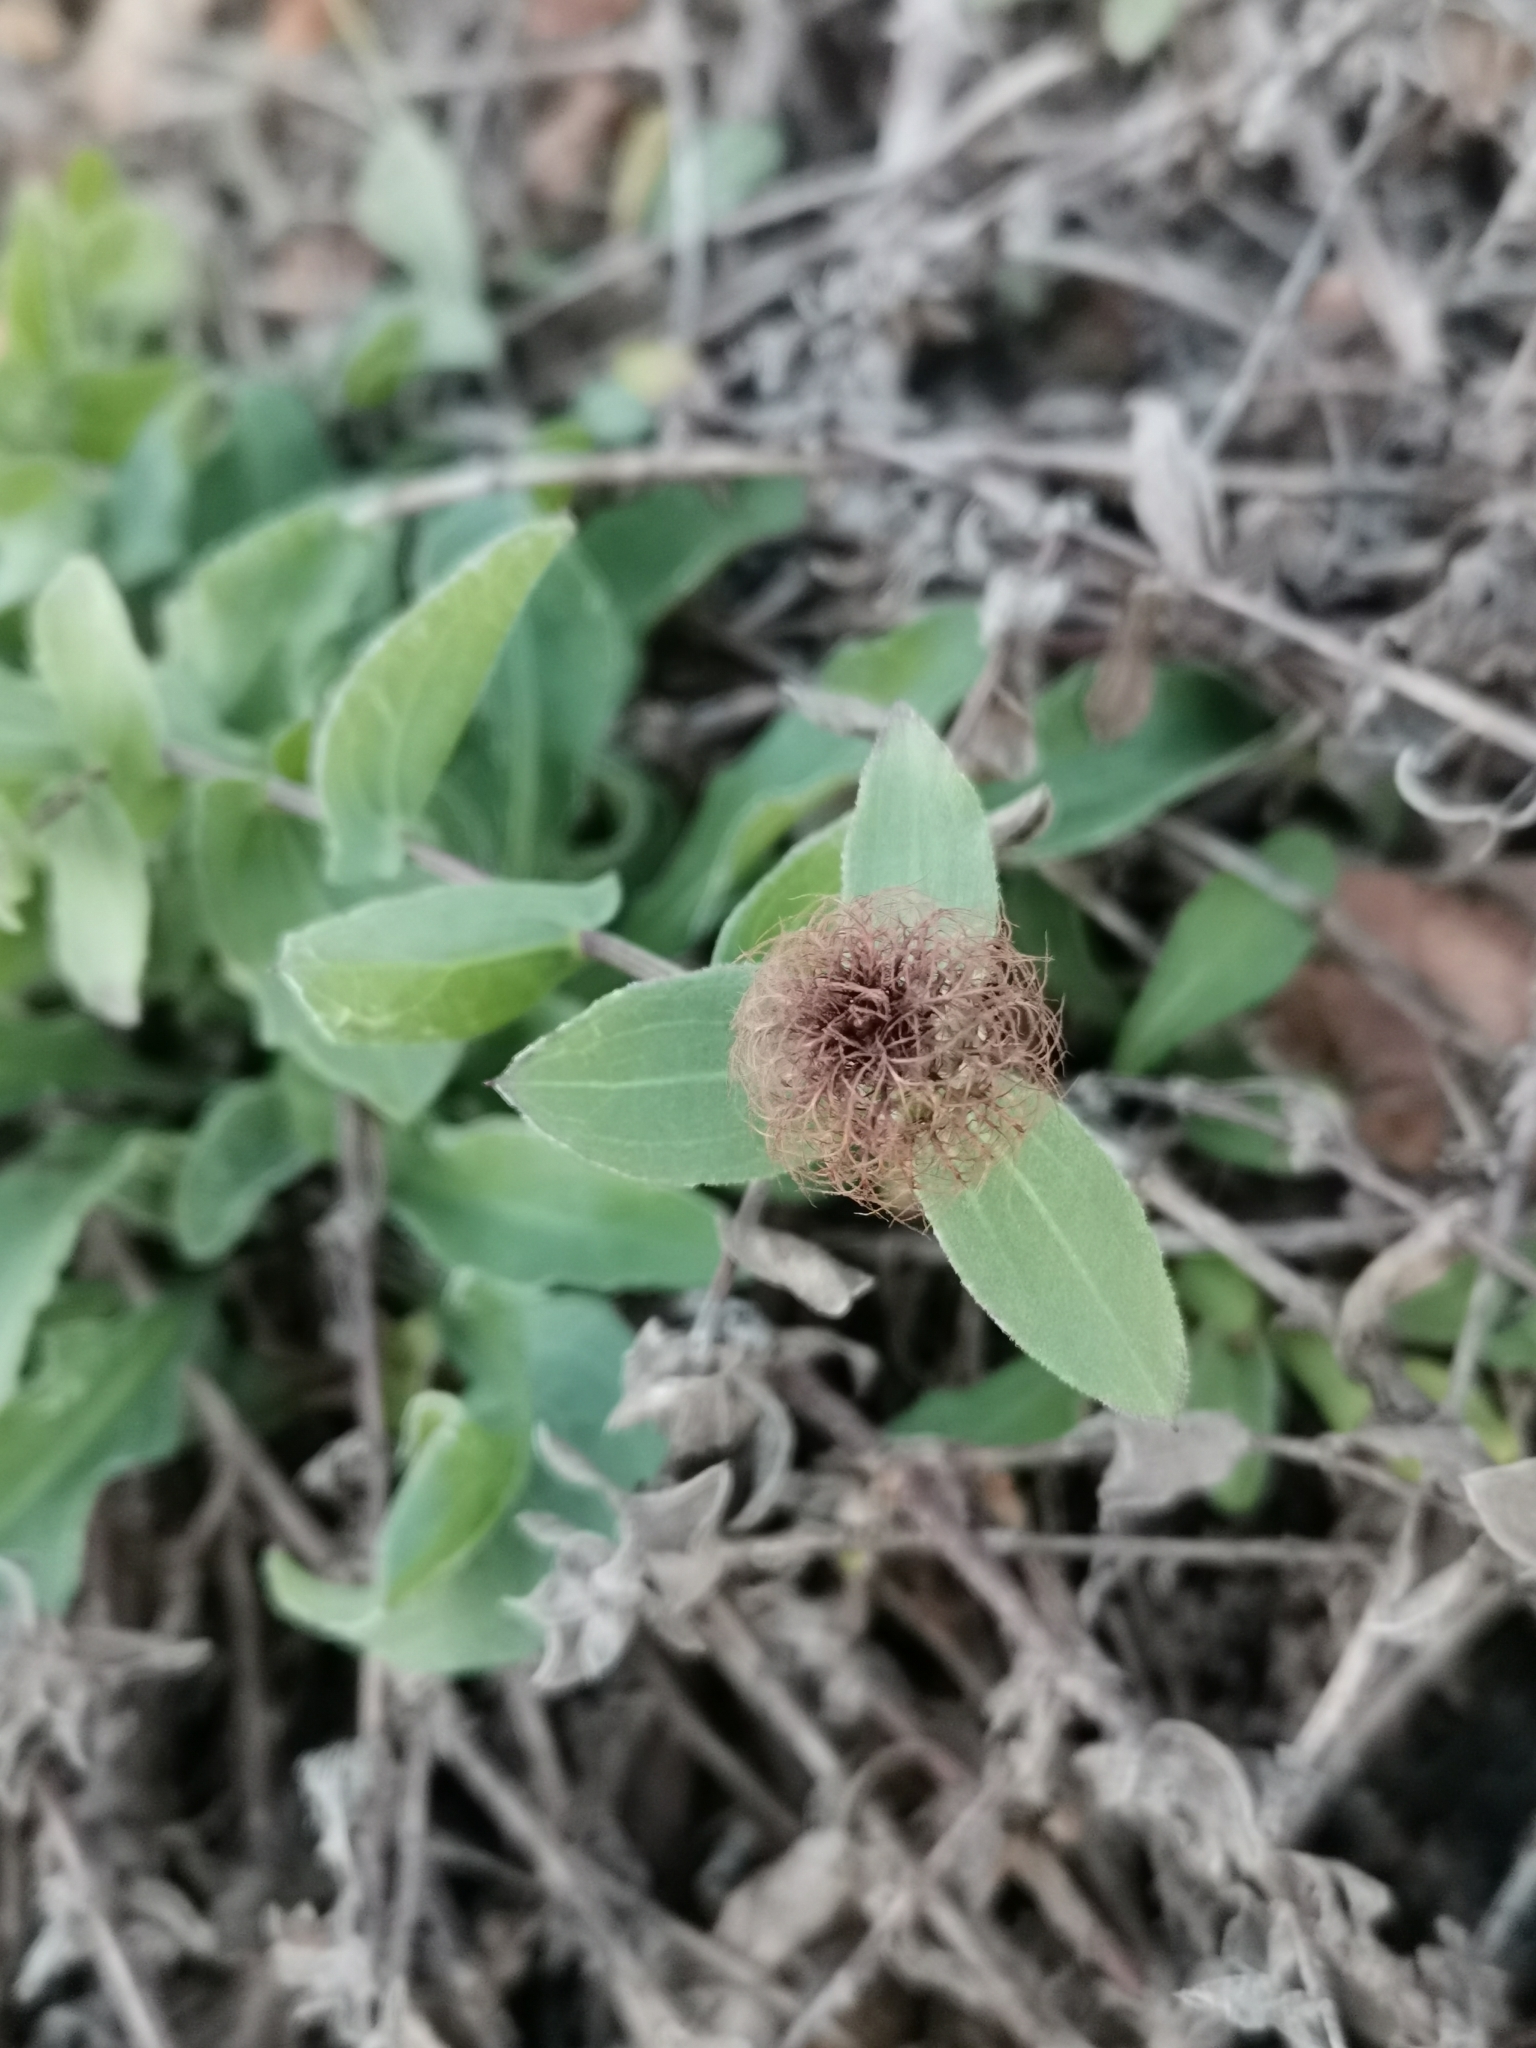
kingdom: Plantae
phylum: Tracheophyta
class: Magnoliopsida
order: Asterales
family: Asteraceae
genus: Centaurea
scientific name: Centaurea pectinata
